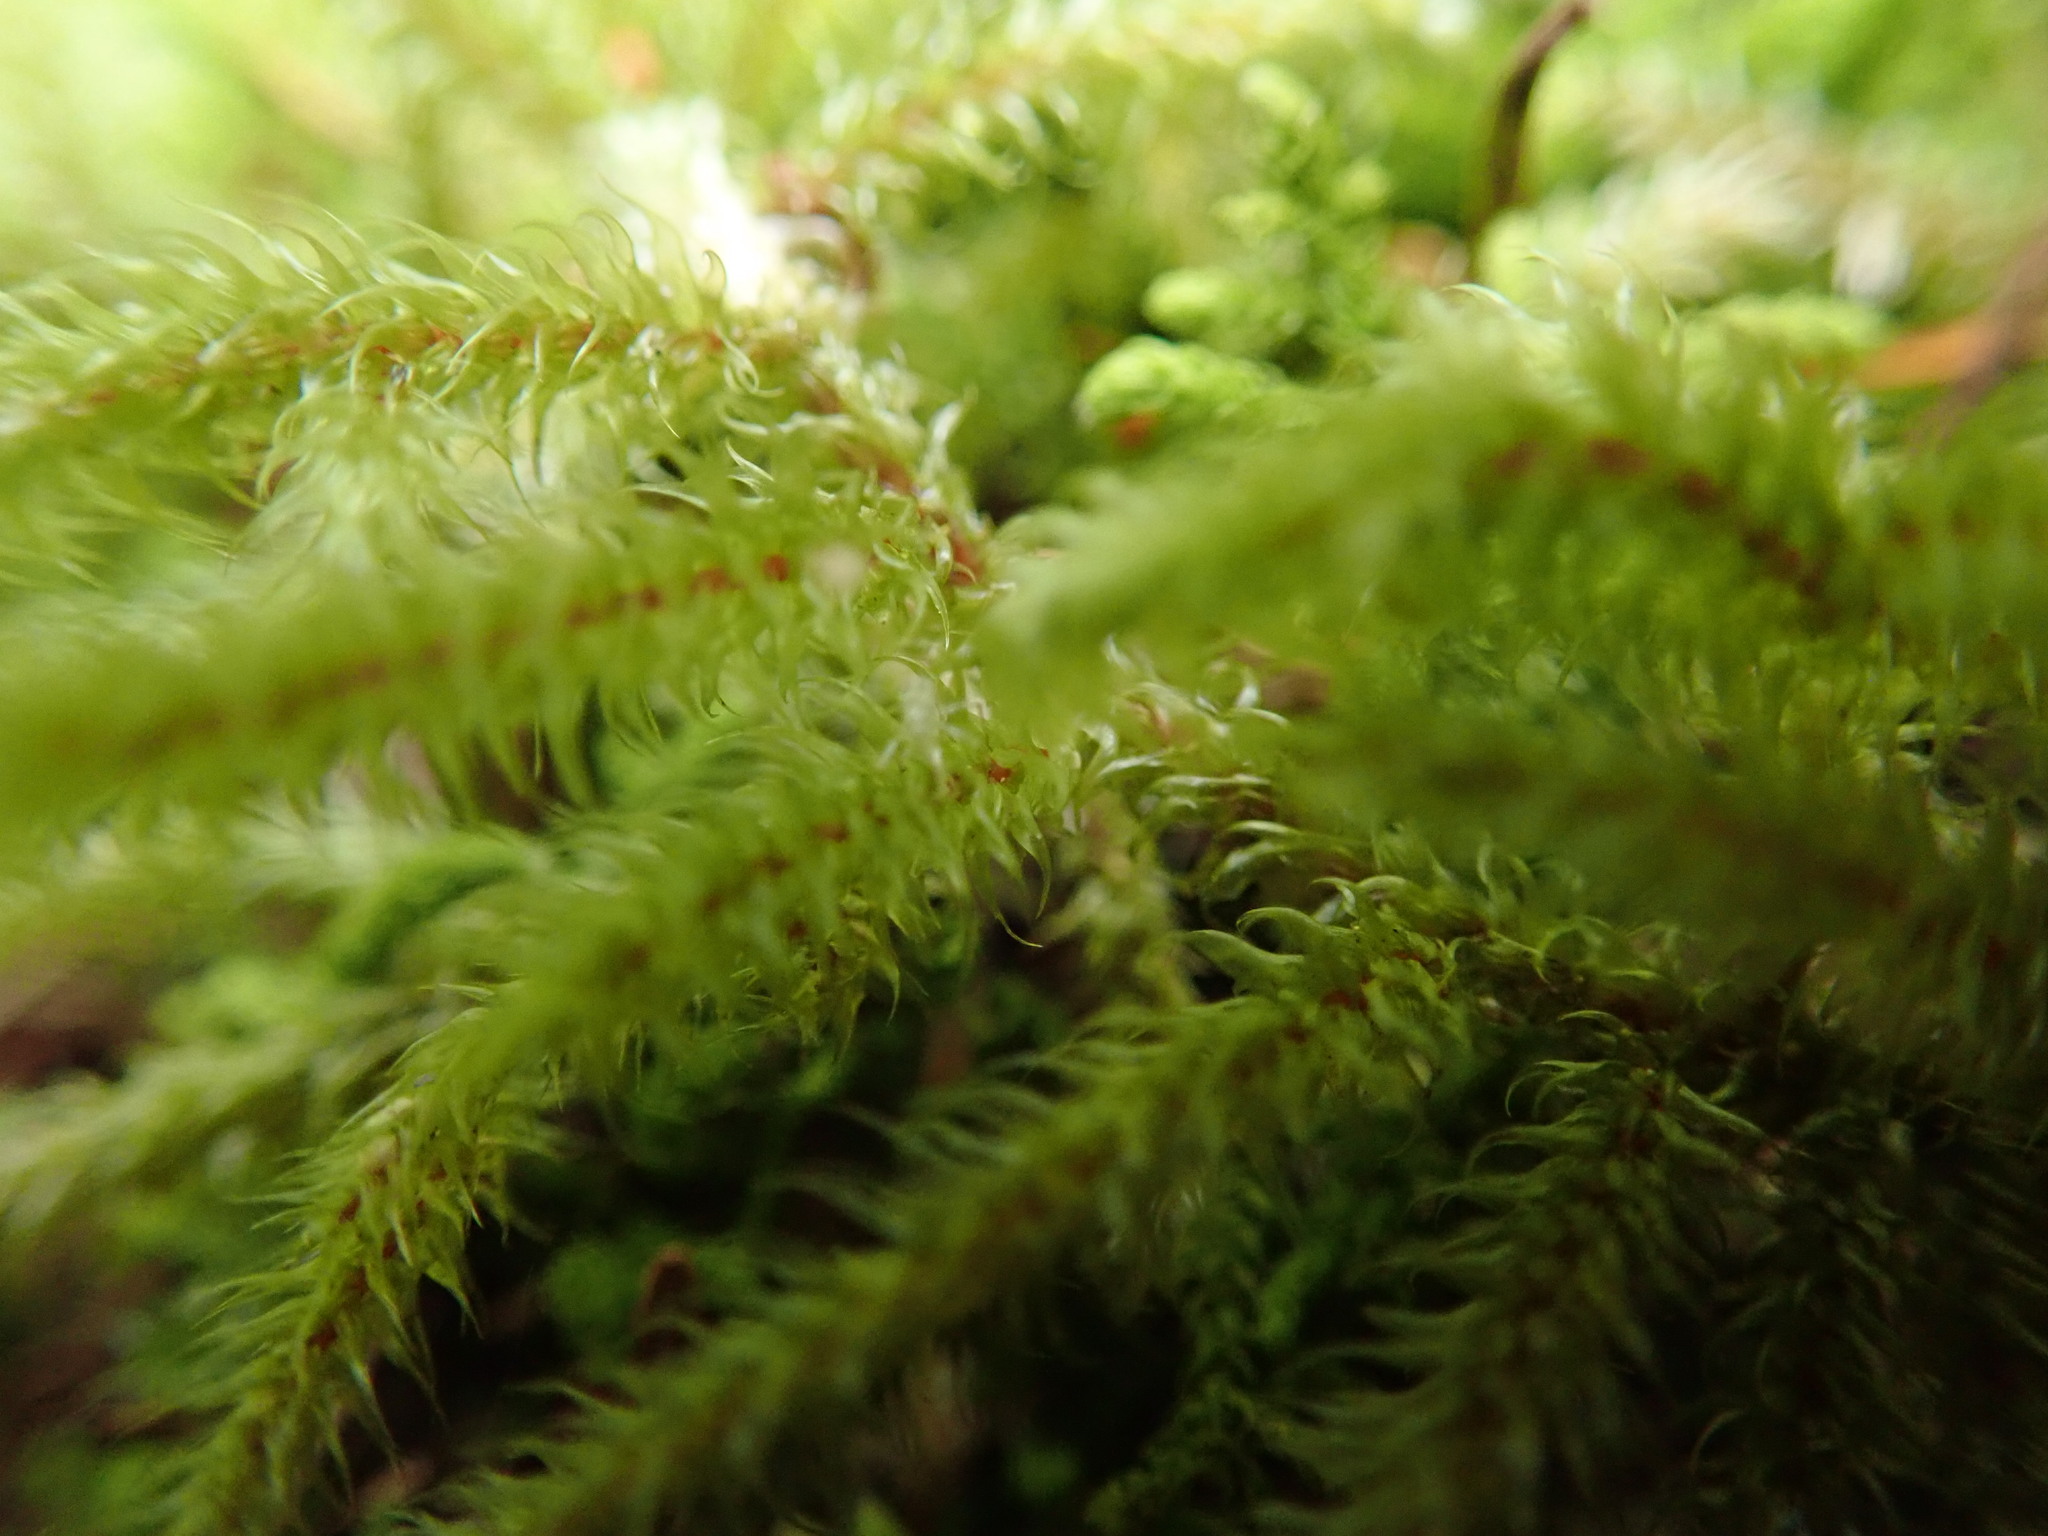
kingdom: Plantae
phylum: Bryophyta
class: Bryopsida
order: Hypnales
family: Hylocomiaceae
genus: Rhytidiadelphus
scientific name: Rhytidiadelphus loreus
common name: Lanky moss
